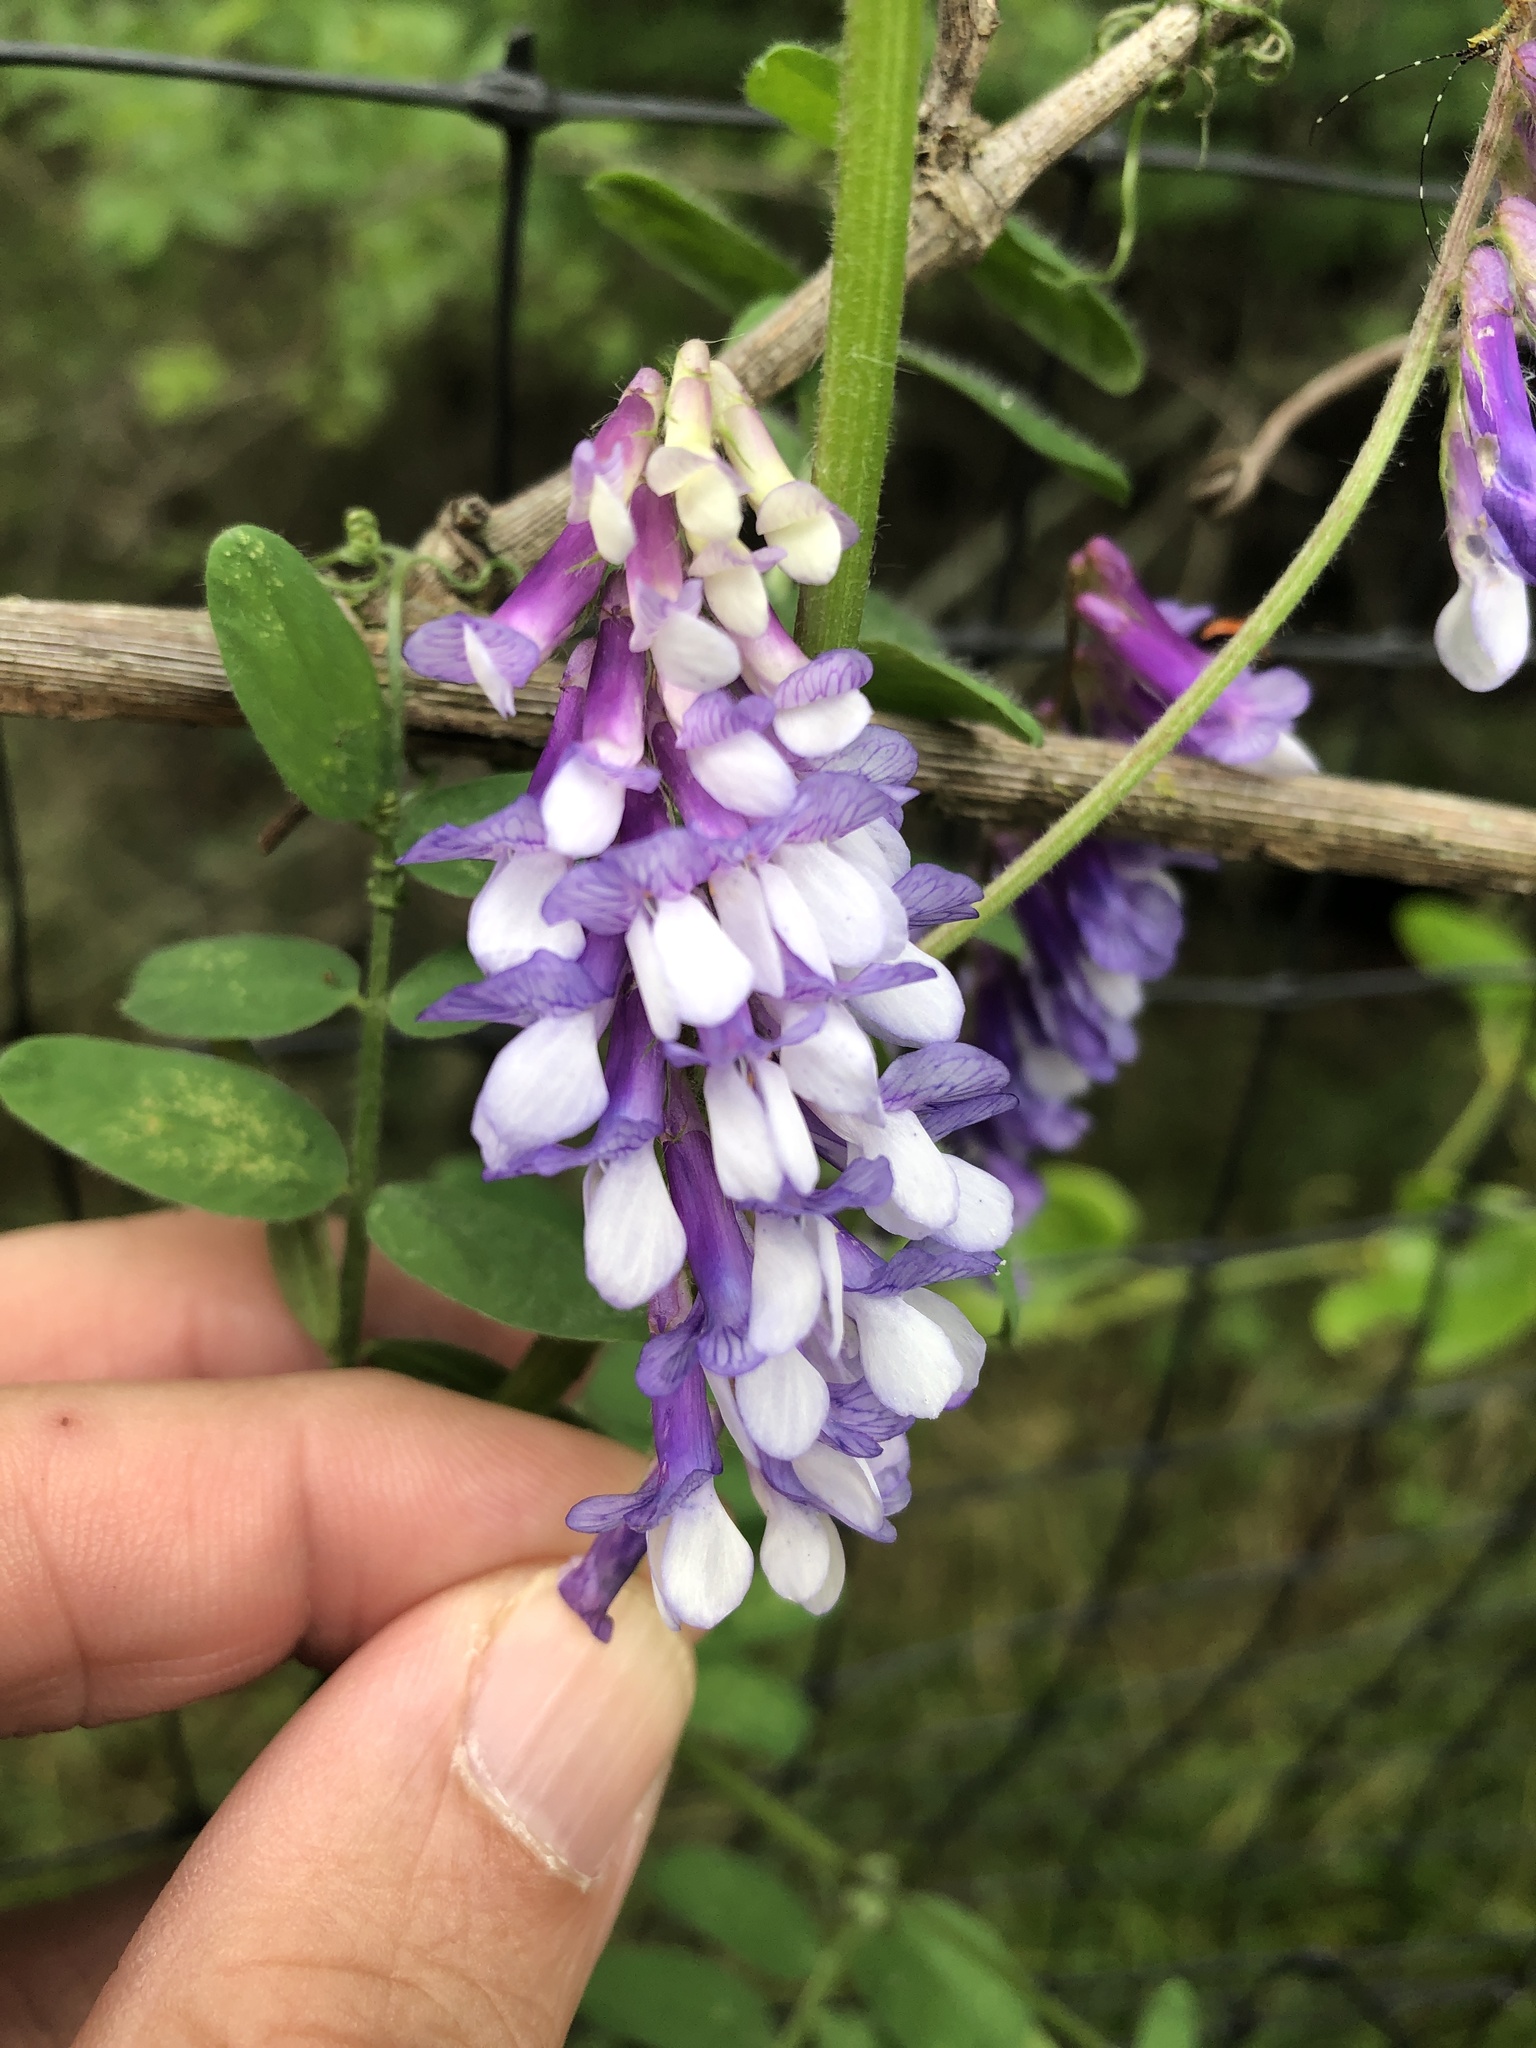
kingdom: Plantae
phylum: Tracheophyta
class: Magnoliopsida
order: Fabales
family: Fabaceae
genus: Vicia
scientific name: Vicia villosa
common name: Fodder vetch
